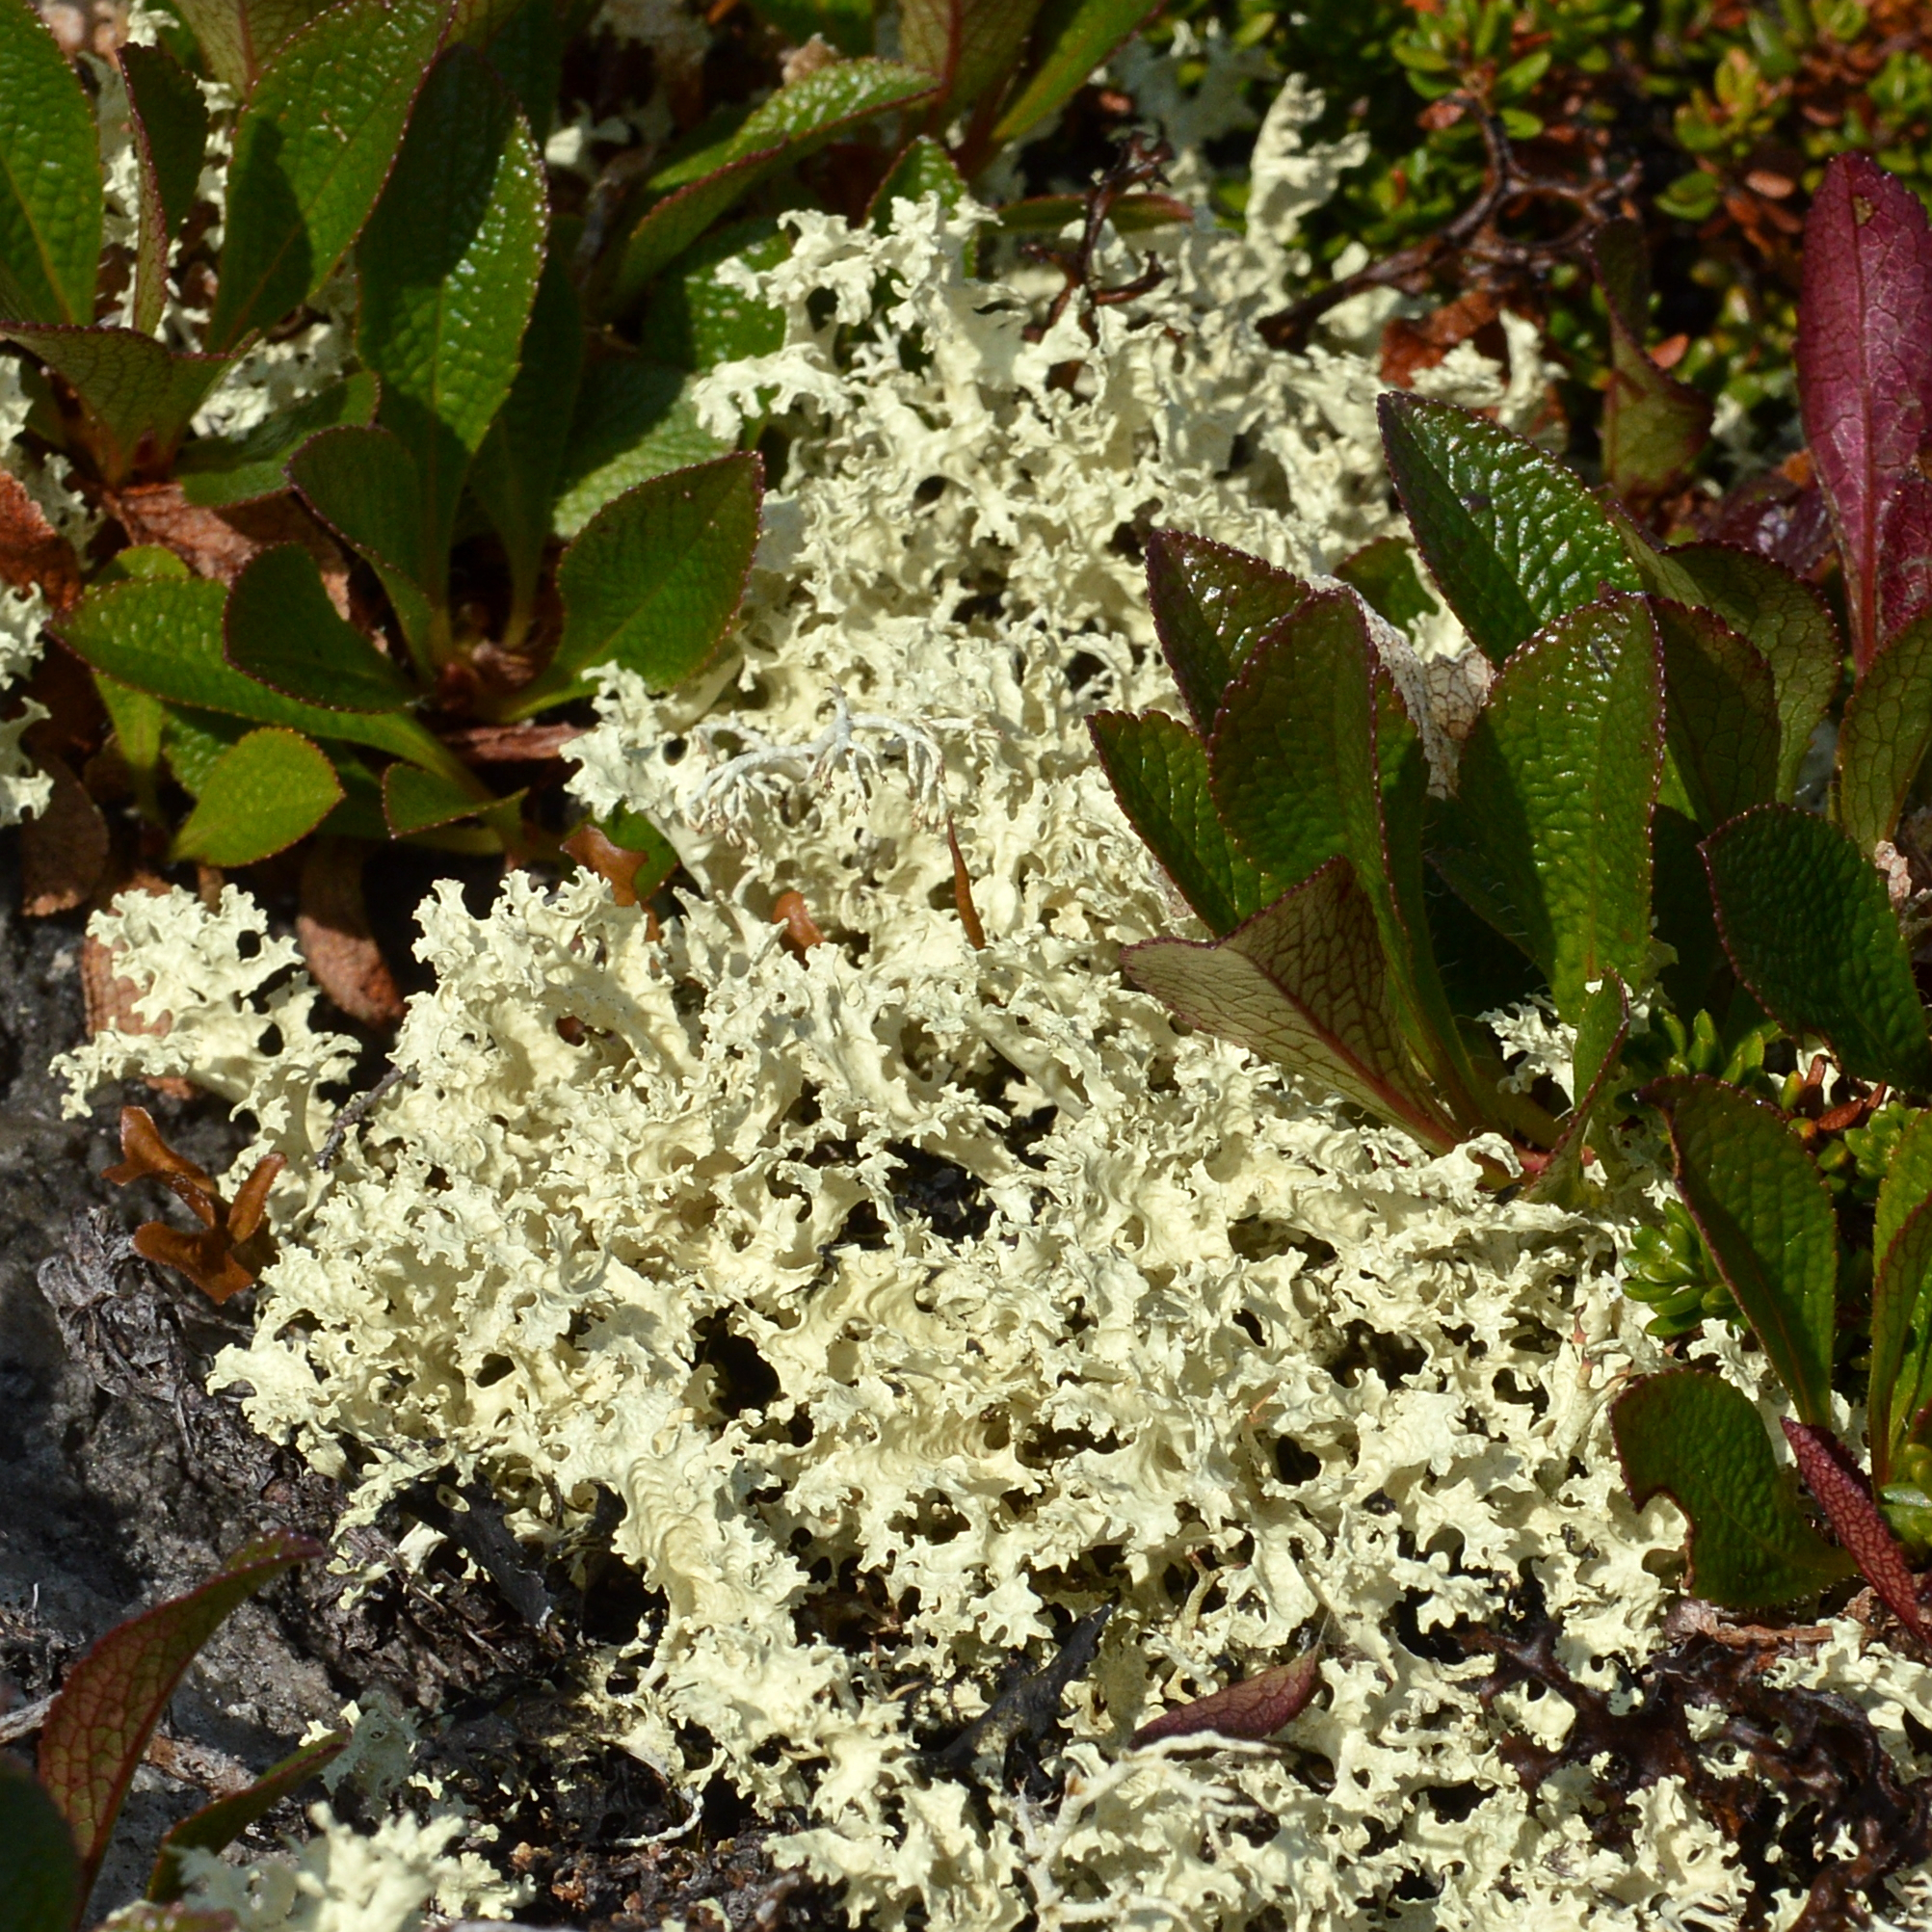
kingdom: Fungi
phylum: Ascomycota
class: Lecanoromycetes
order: Lecanorales
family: Parmeliaceae
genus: Nephromopsis
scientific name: Nephromopsis nivalis
